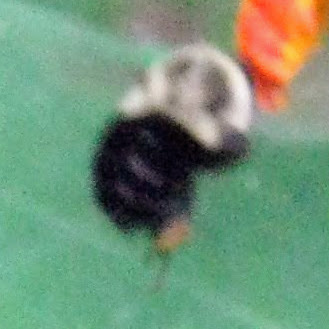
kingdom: Animalia
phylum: Arthropoda
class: Insecta
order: Hymenoptera
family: Apidae
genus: Bombus
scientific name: Bombus impatiens
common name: Common eastern bumble bee
